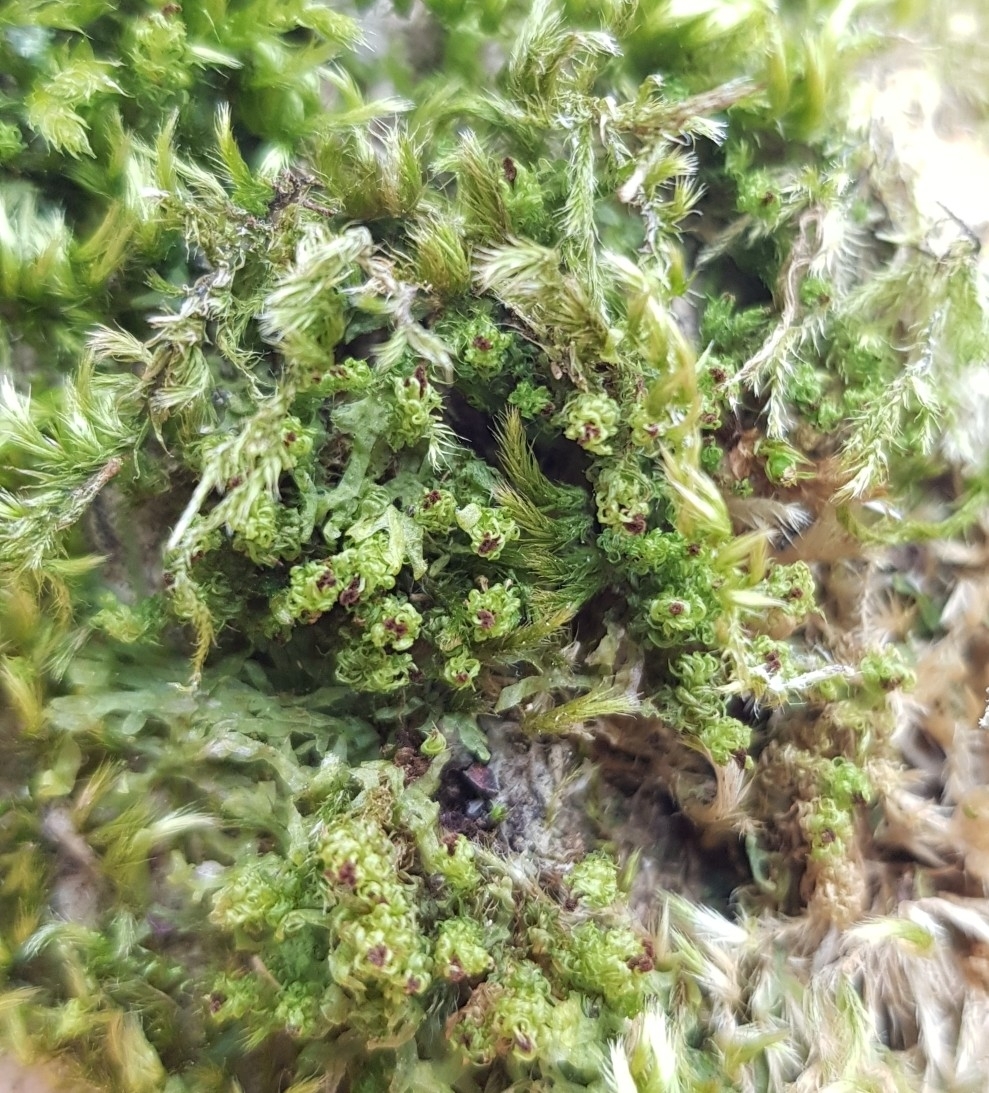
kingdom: Plantae
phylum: Bryophyta
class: Bryopsida
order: Orthotrichales
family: Orthotrichaceae
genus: Plenogemma
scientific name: Plenogemma phyllantha
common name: Frizzled pincushion
